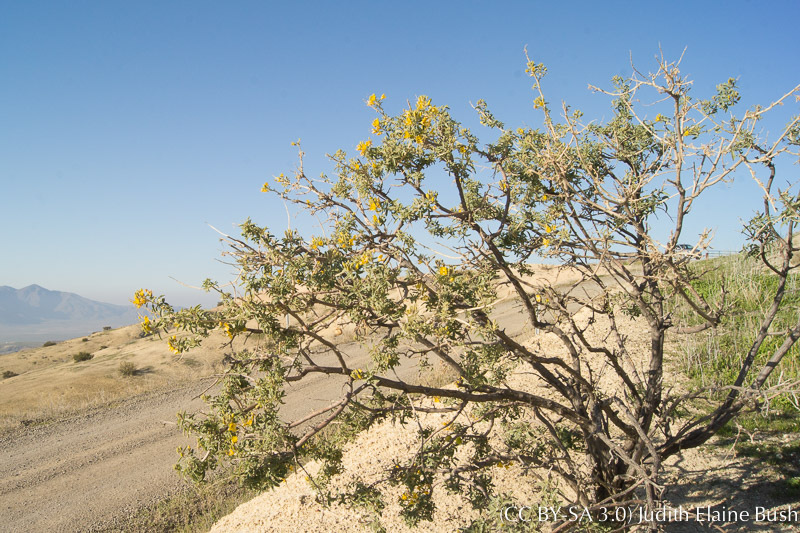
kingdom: Plantae
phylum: Tracheophyta
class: Magnoliopsida
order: Brassicales
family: Cleomaceae
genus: Cleomella
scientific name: Cleomella arborea
